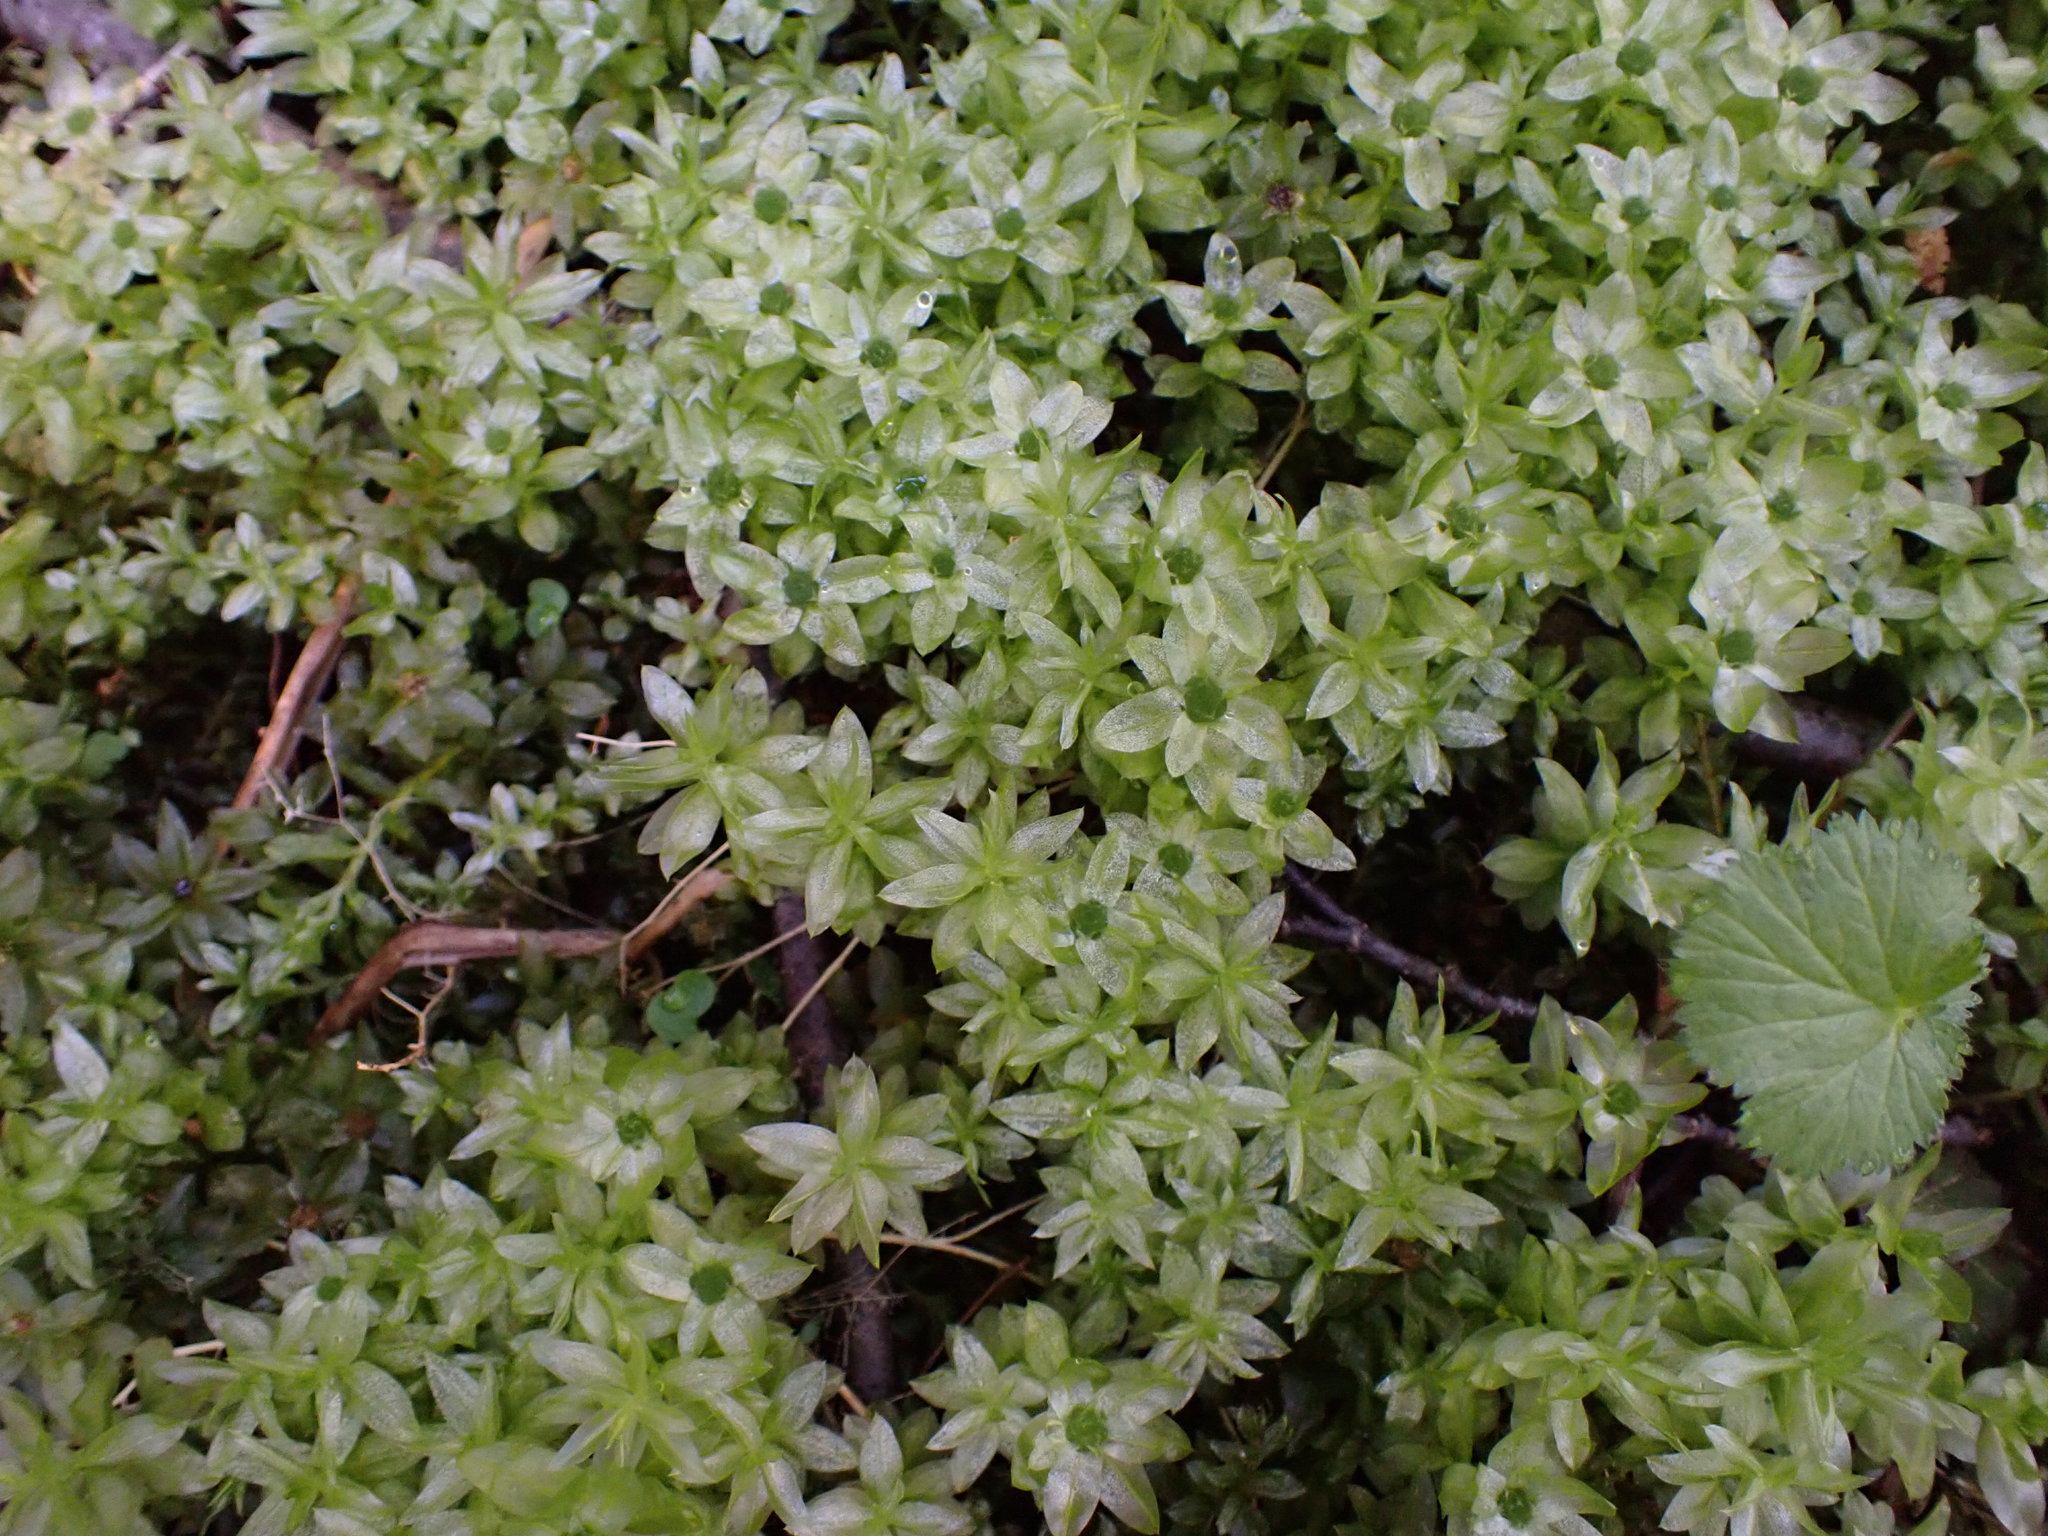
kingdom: Plantae
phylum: Bryophyta
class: Bryopsida
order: Bryales
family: Mniaceae
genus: Plagiomnium
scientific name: Plagiomnium insigne
